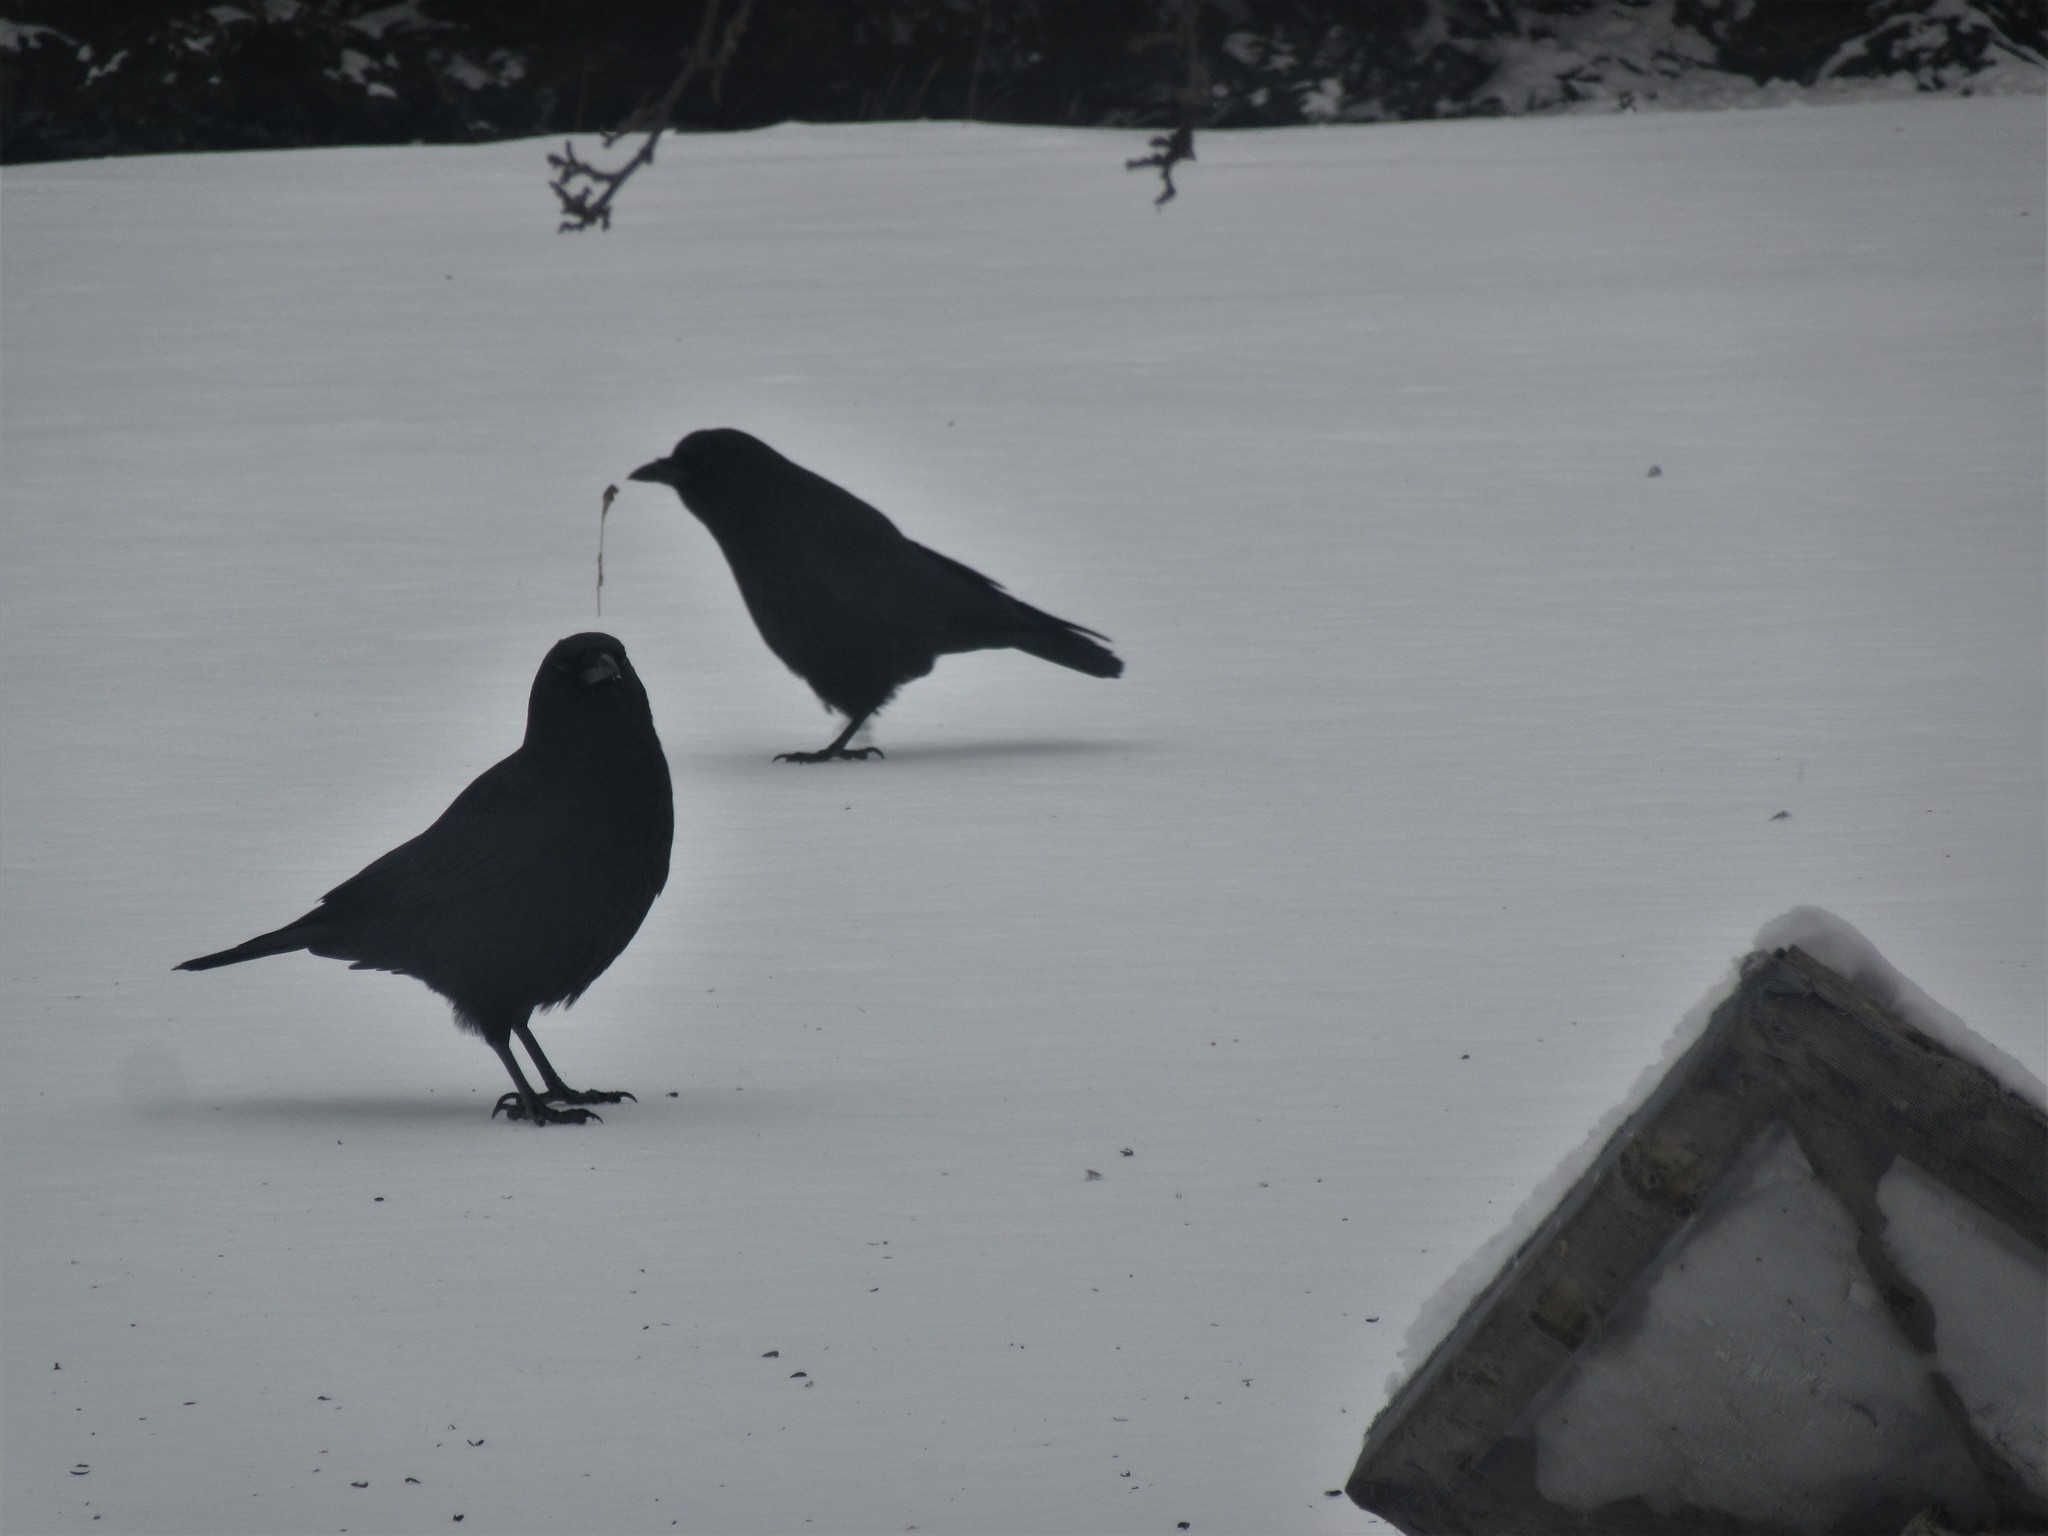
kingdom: Animalia
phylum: Chordata
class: Aves
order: Passeriformes
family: Corvidae
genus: Corvus
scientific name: Corvus brachyrhynchos
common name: American crow
